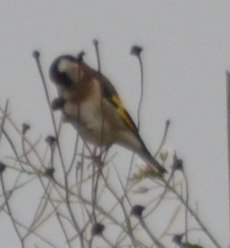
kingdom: Animalia
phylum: Chordata
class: Aves
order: Passeriformes
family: Fringillidae
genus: Carduelis
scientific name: Carduelis carduelis
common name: European goldfinch
